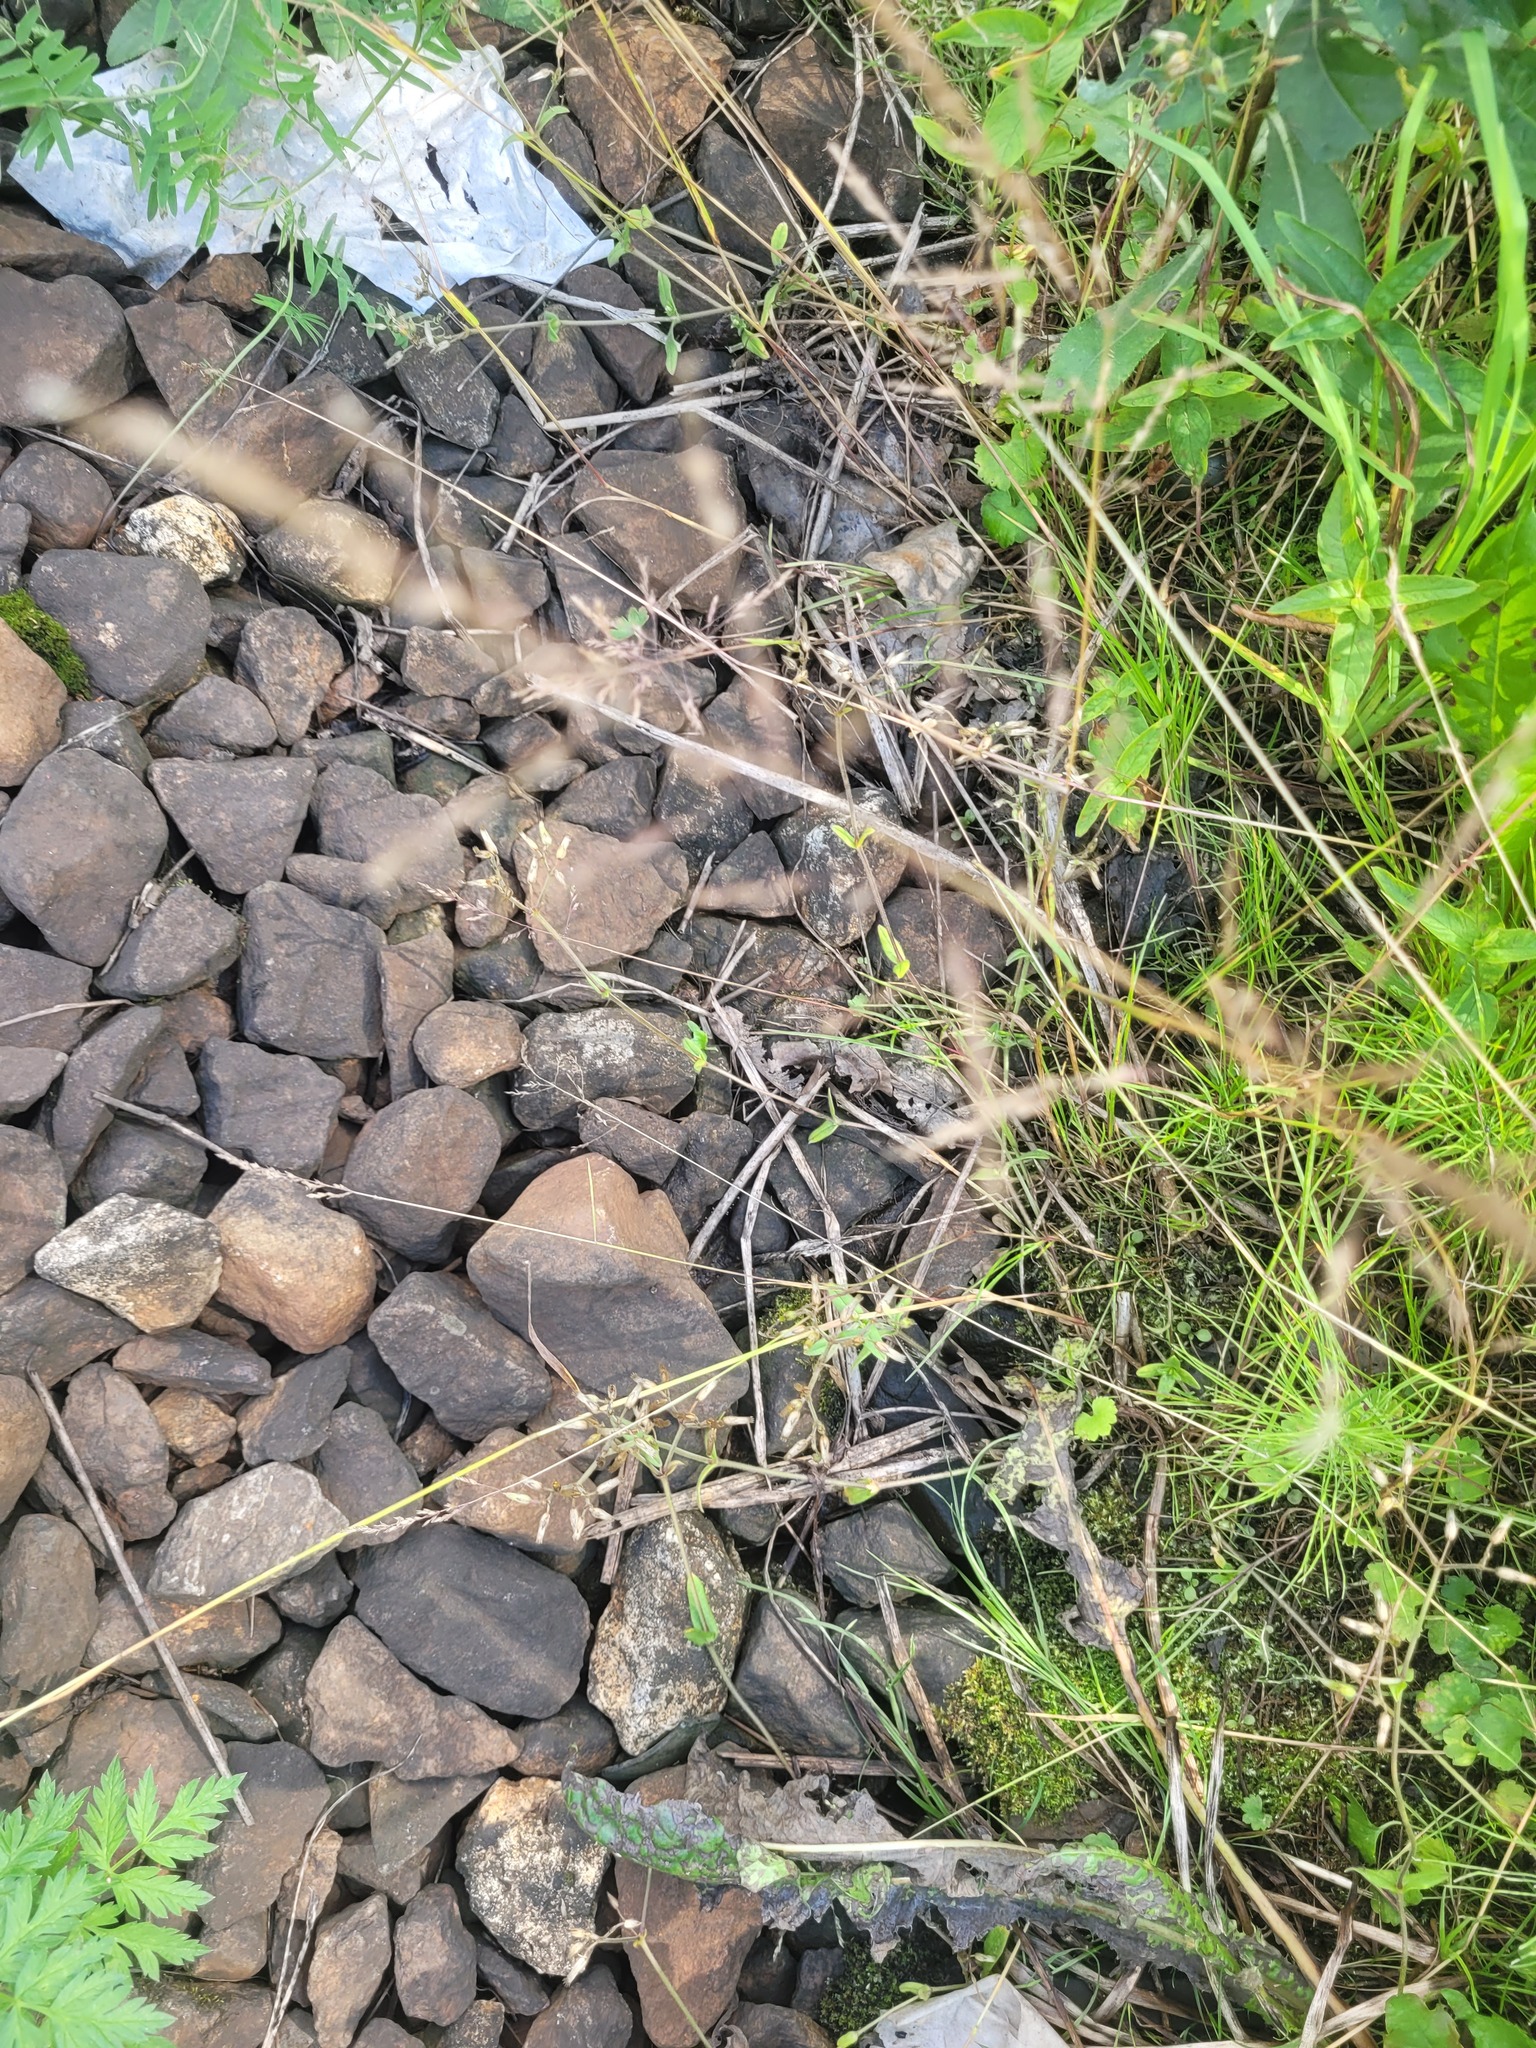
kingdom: Plantae
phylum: Tracheophyta
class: Magnoliopsida
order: Caryophyllales
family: Caryophyllaceae
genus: Cerastium
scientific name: Cerastium holosteoides
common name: Big chickweed
